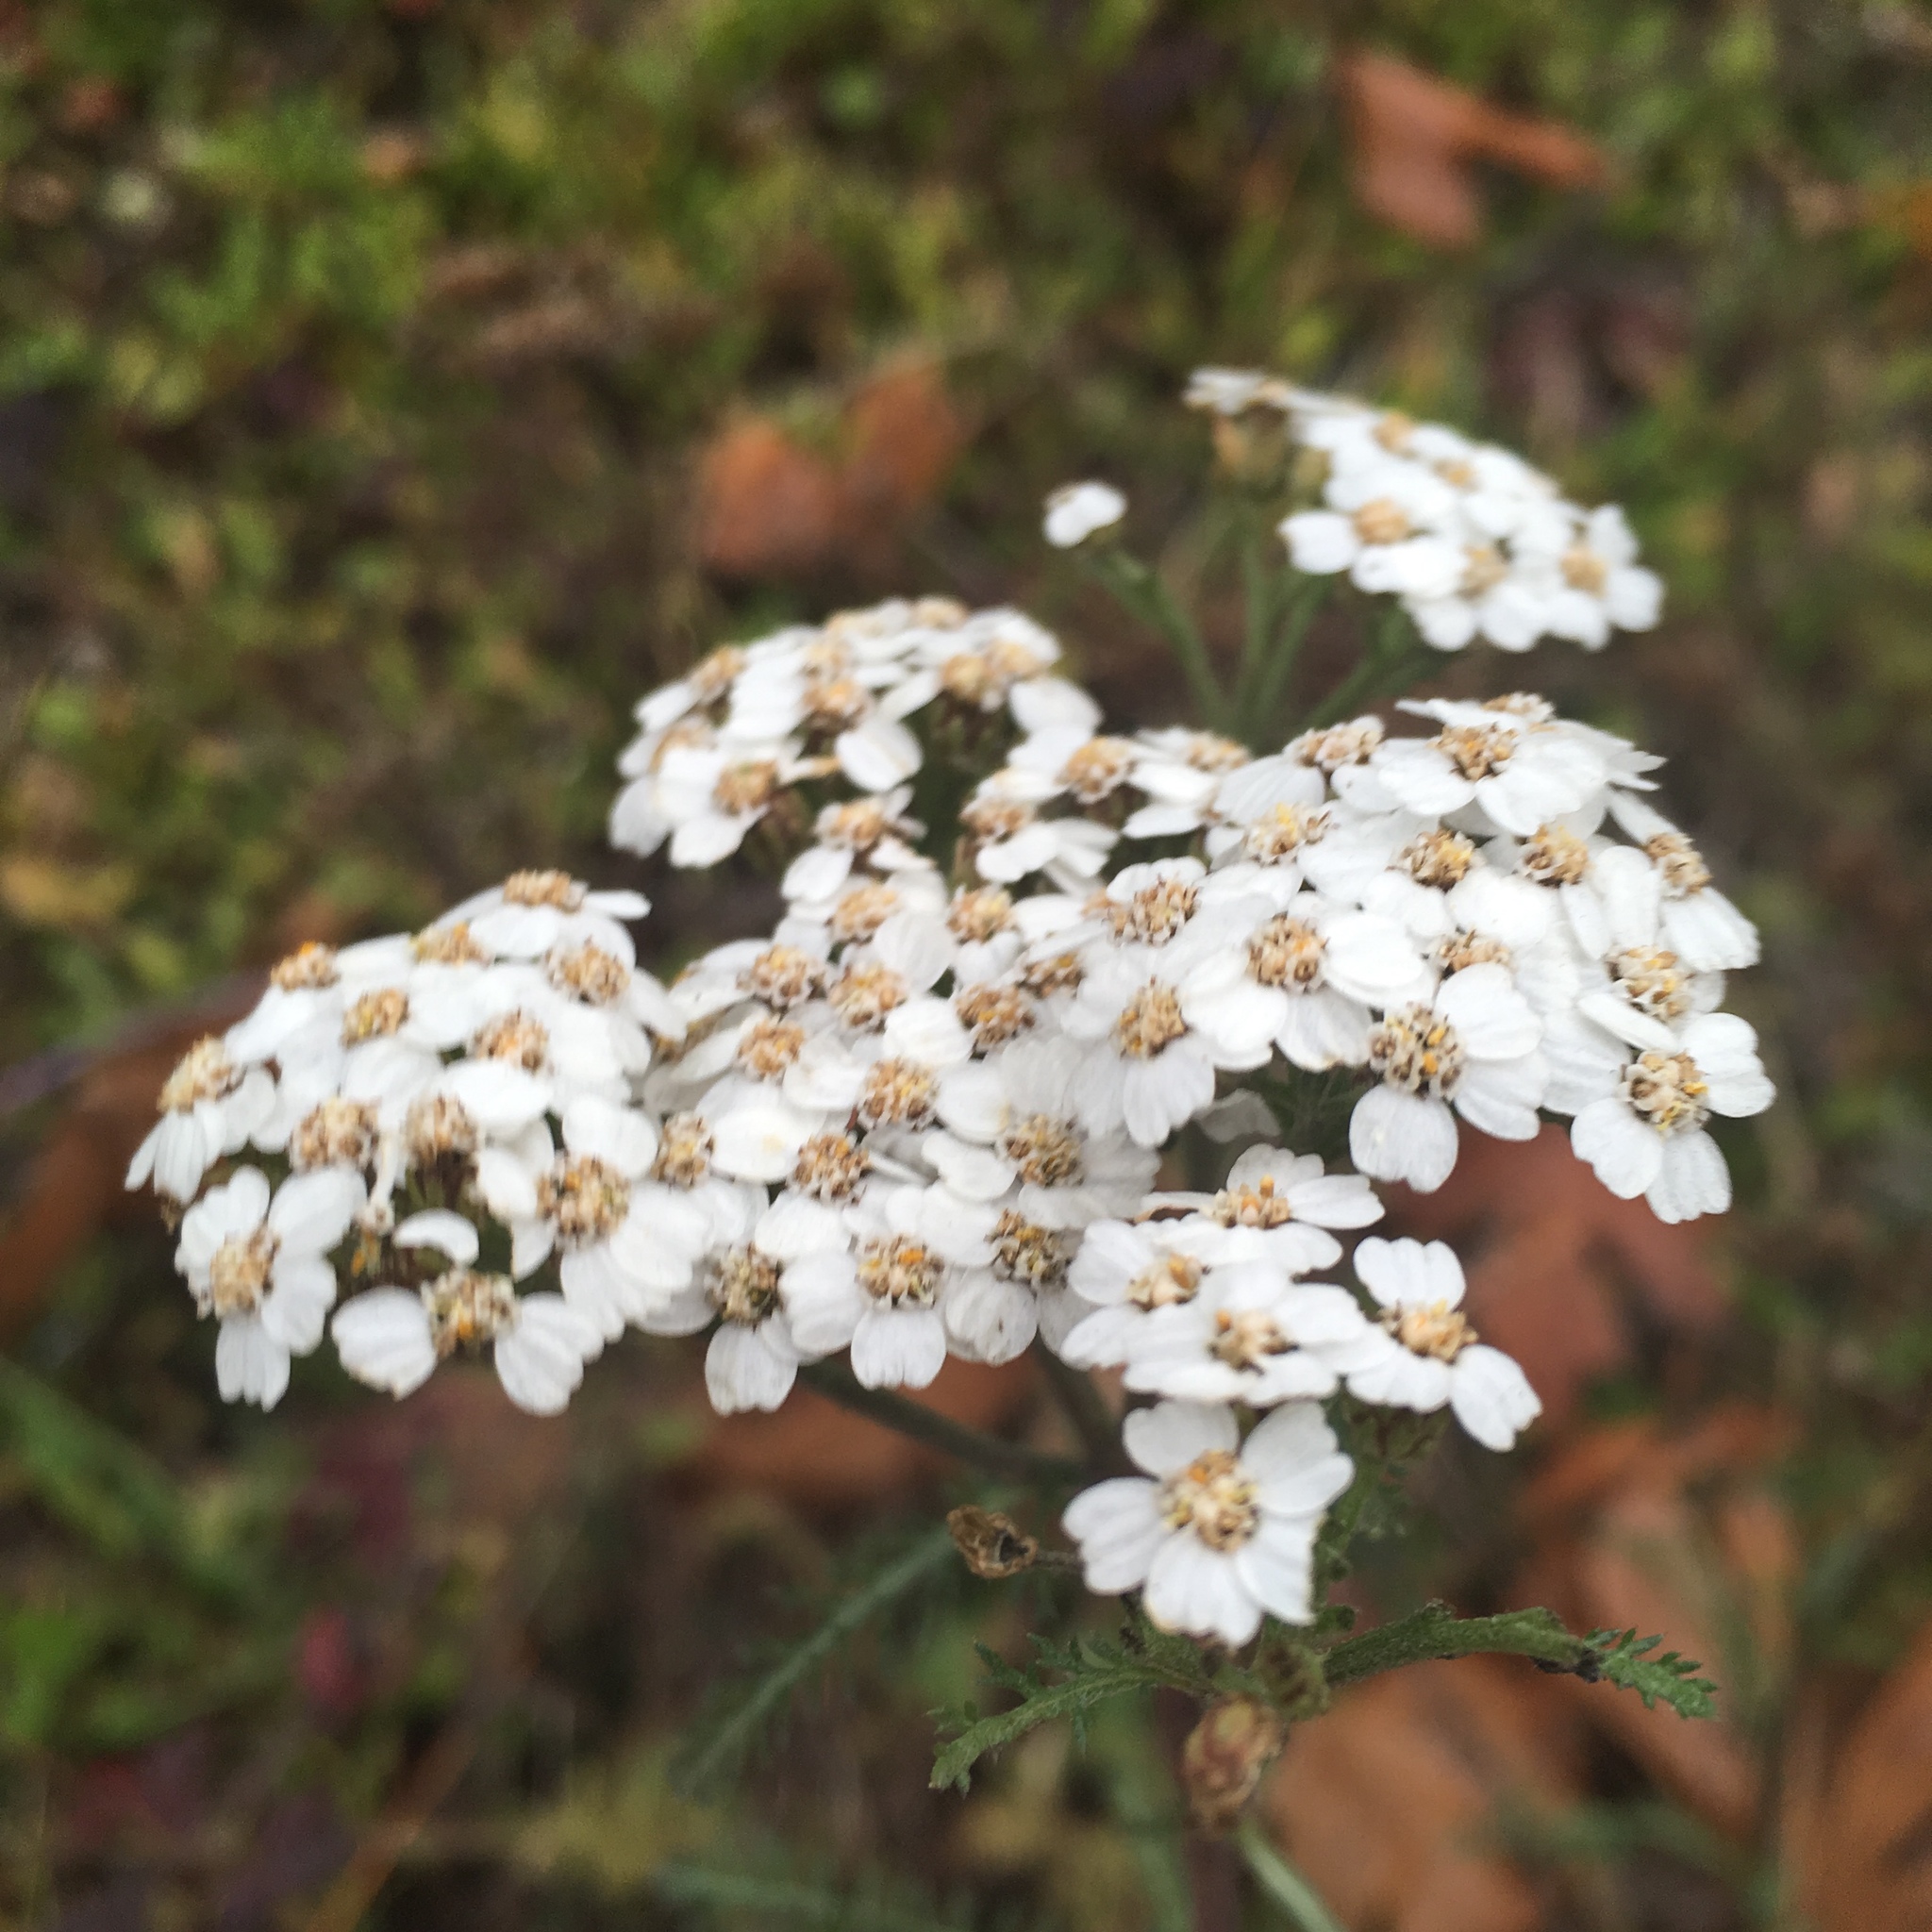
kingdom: Plantae
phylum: Tracheophyta
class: Magnoliopsida
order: Asterales
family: Asteraceae
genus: Achillea
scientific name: Achillea millefolium
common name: Yarrow
